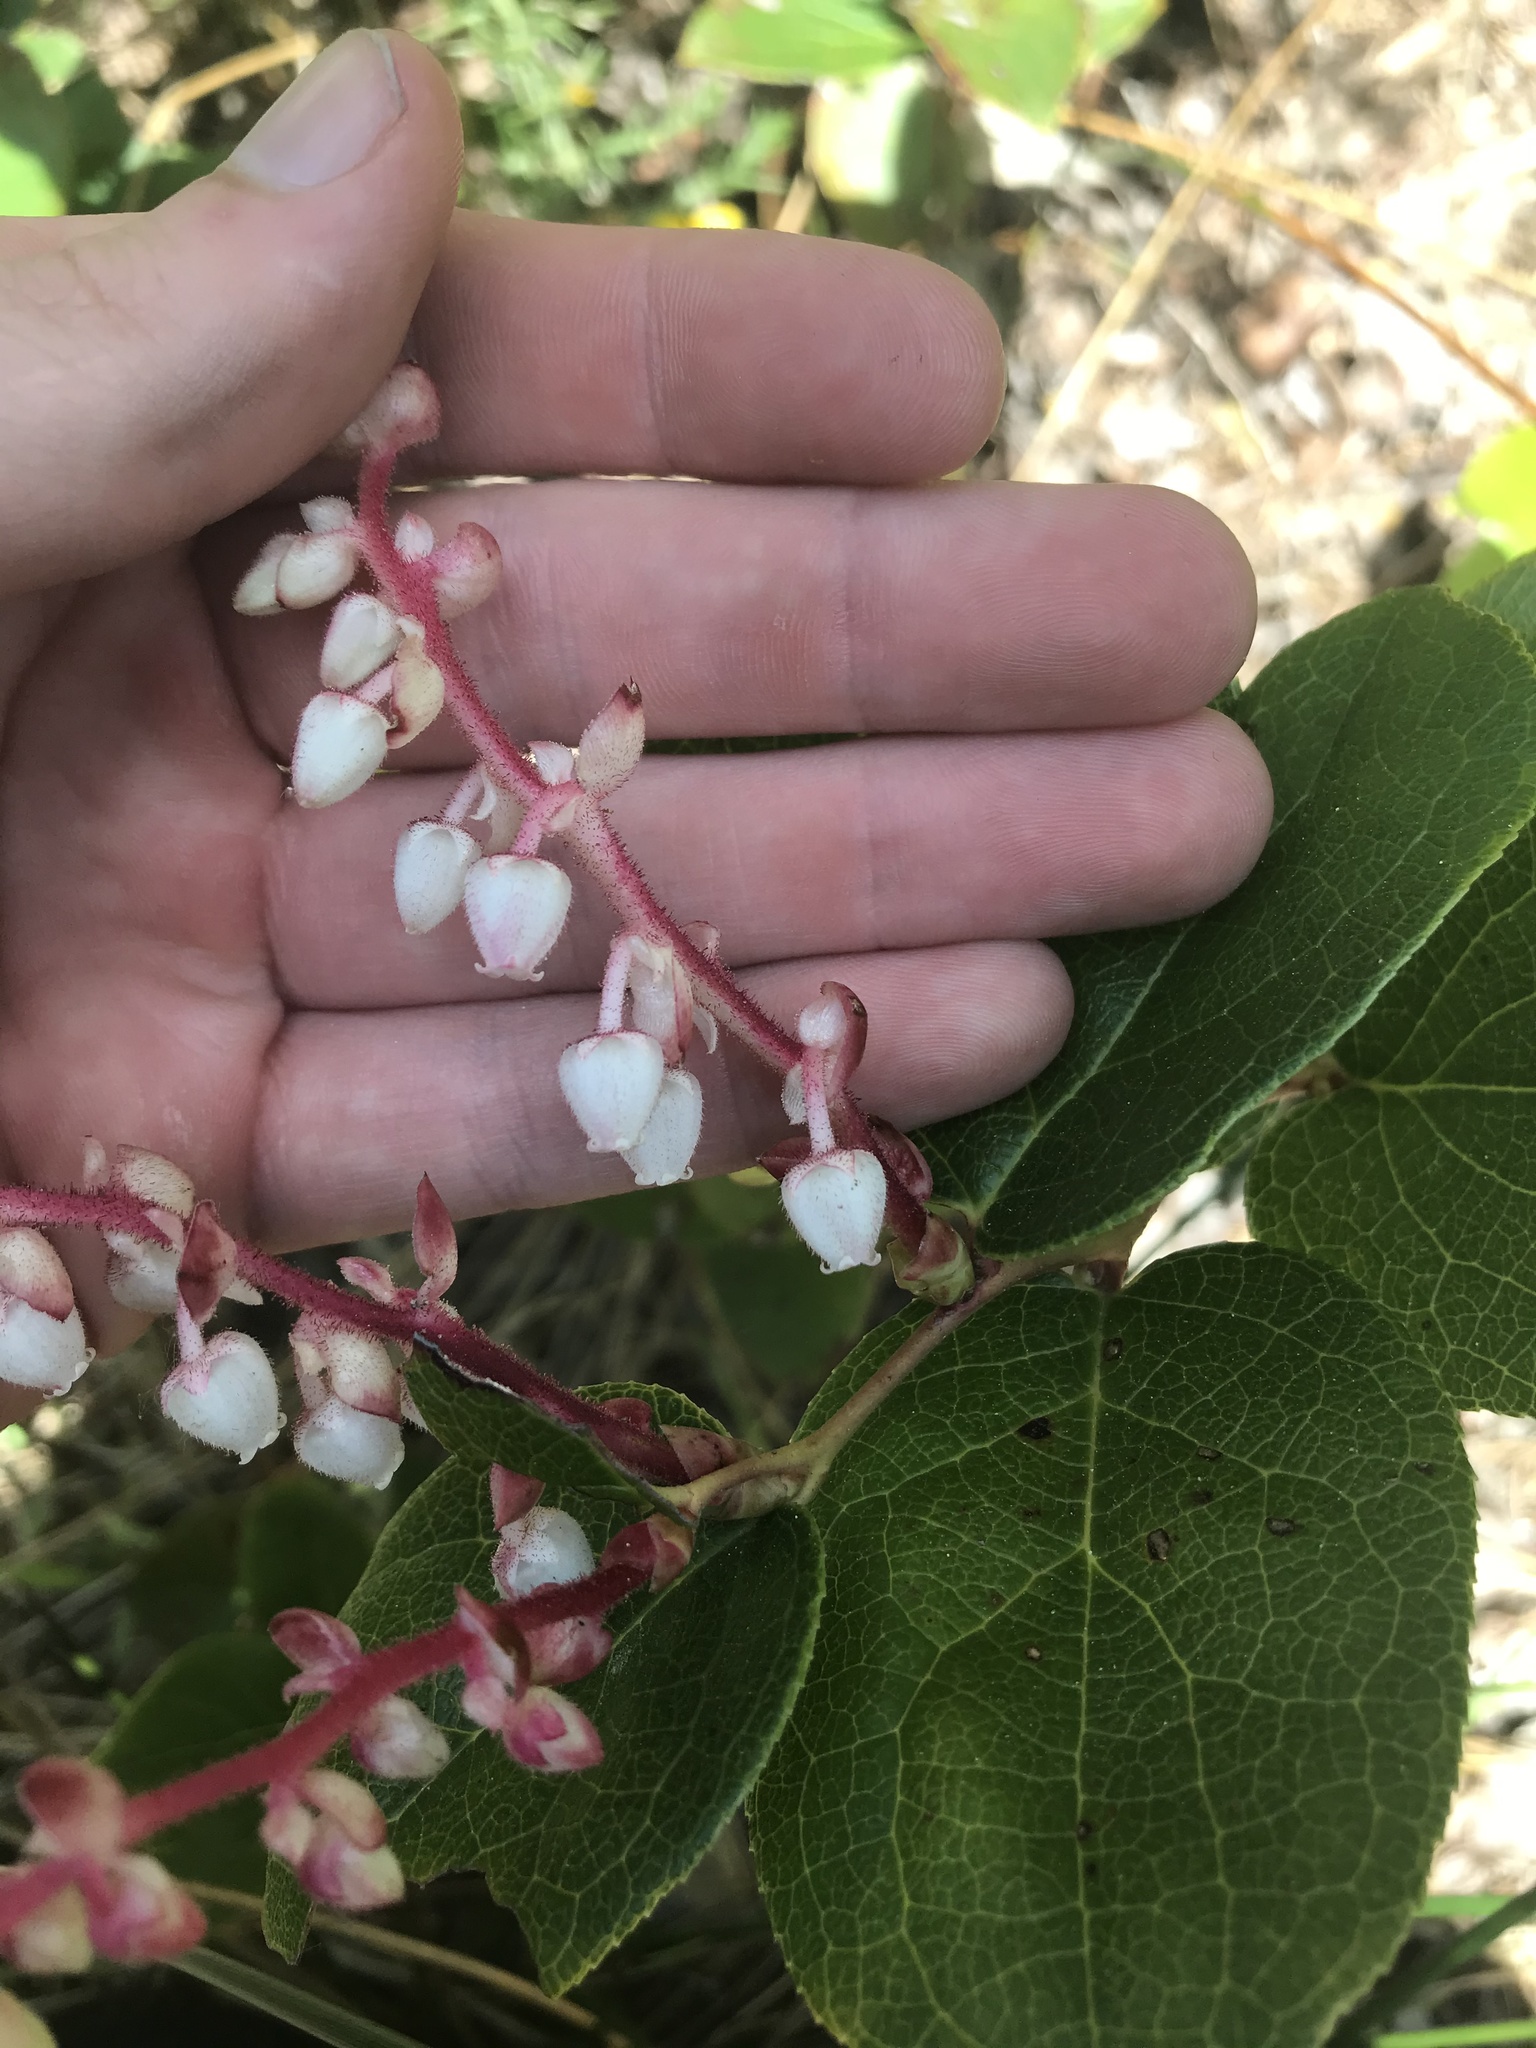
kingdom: Plantae
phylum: Tracheophyta
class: Magnoliopsida
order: Ericales
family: Ericaceae
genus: Gaultheria
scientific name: Gaultheria shallon
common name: Shallon
